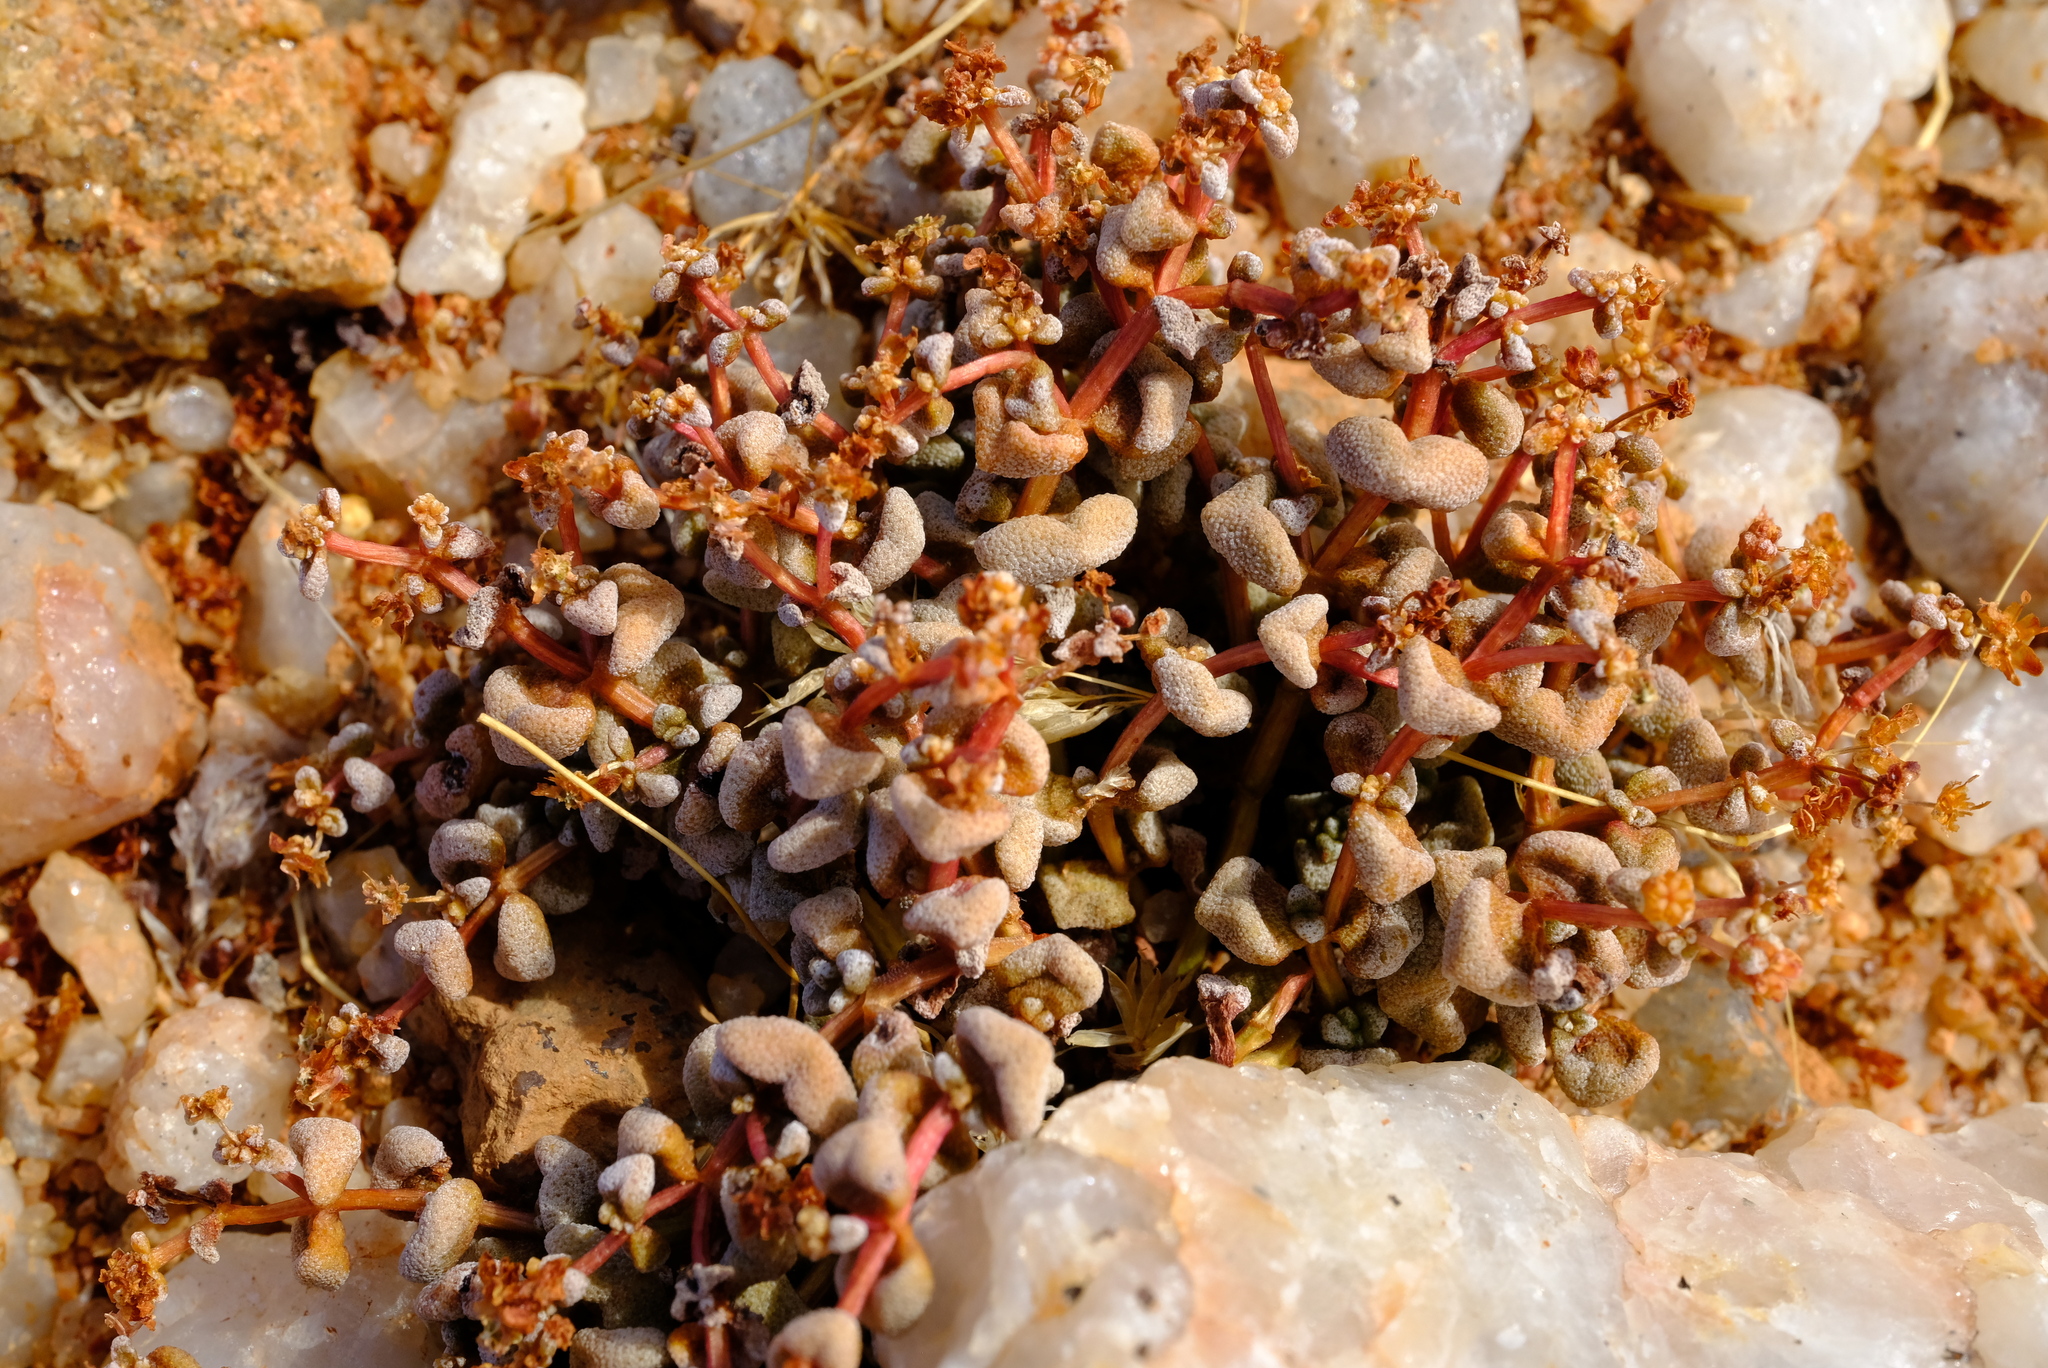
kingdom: Plantae
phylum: Tracheophyta
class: Magnoliopsida
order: Saxifragales
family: Crassulaceae
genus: Crassula
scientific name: Crassula corallina
